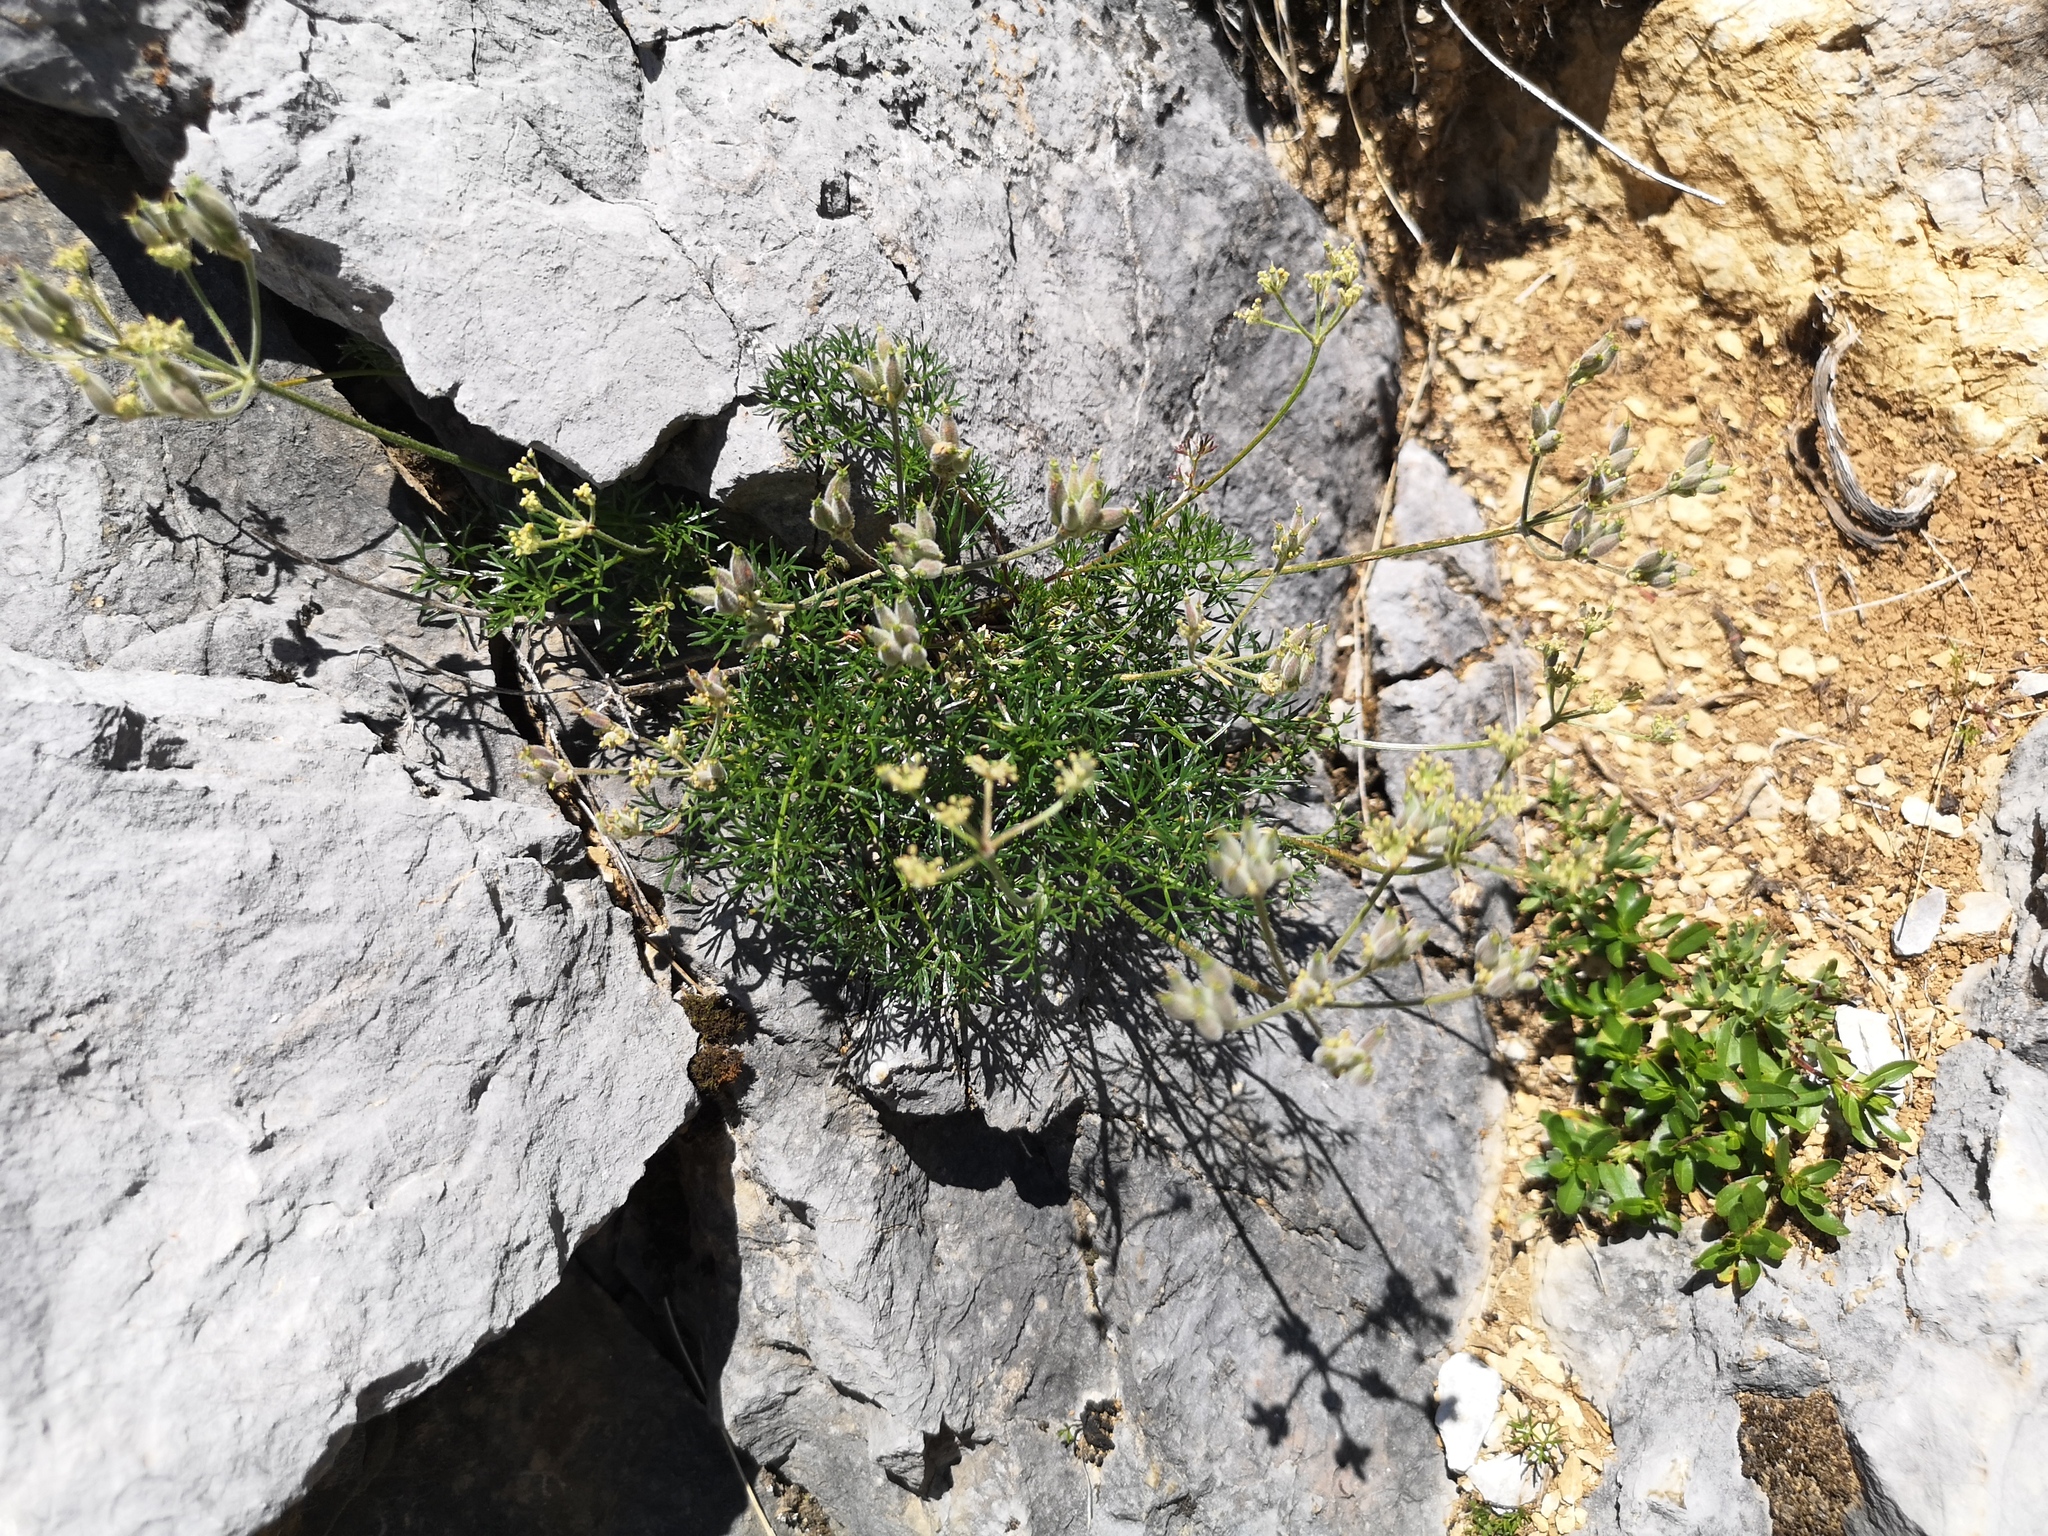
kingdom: Plantae
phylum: Tracheophyta
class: Magnoliopsida
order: Apiales
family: Apiaceae
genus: Athamanta
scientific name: Athamanta cretensis
